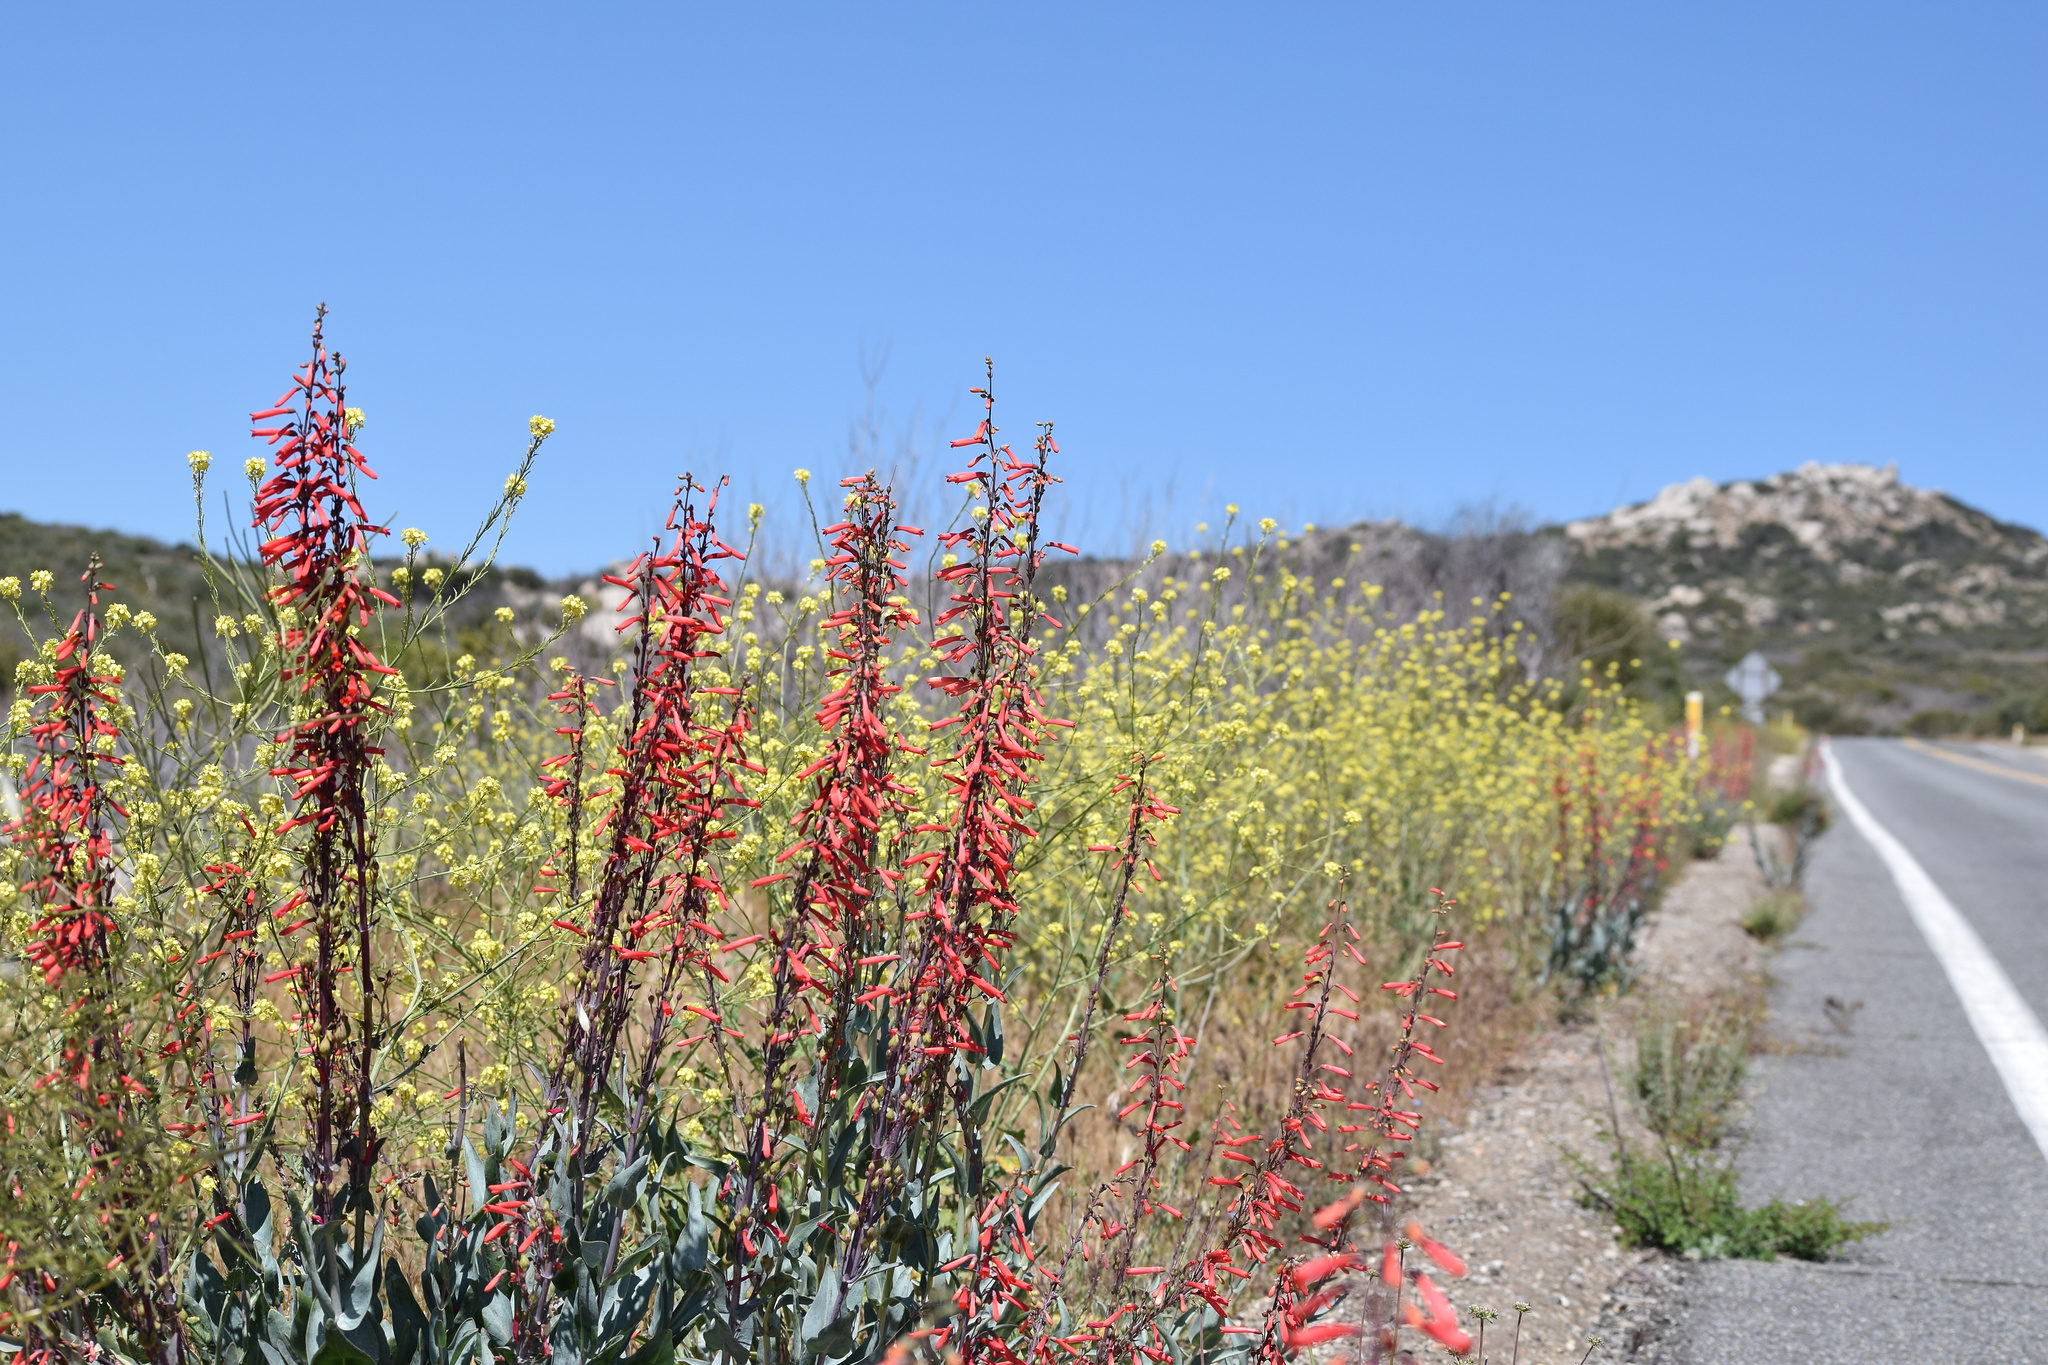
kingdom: Plantae
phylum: Tracheophyta
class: Magnoliopsida
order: Lamiales
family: Plantaginaceae
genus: Penstemon
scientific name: Penstemon centranthifolius
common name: Scarlet bugler
